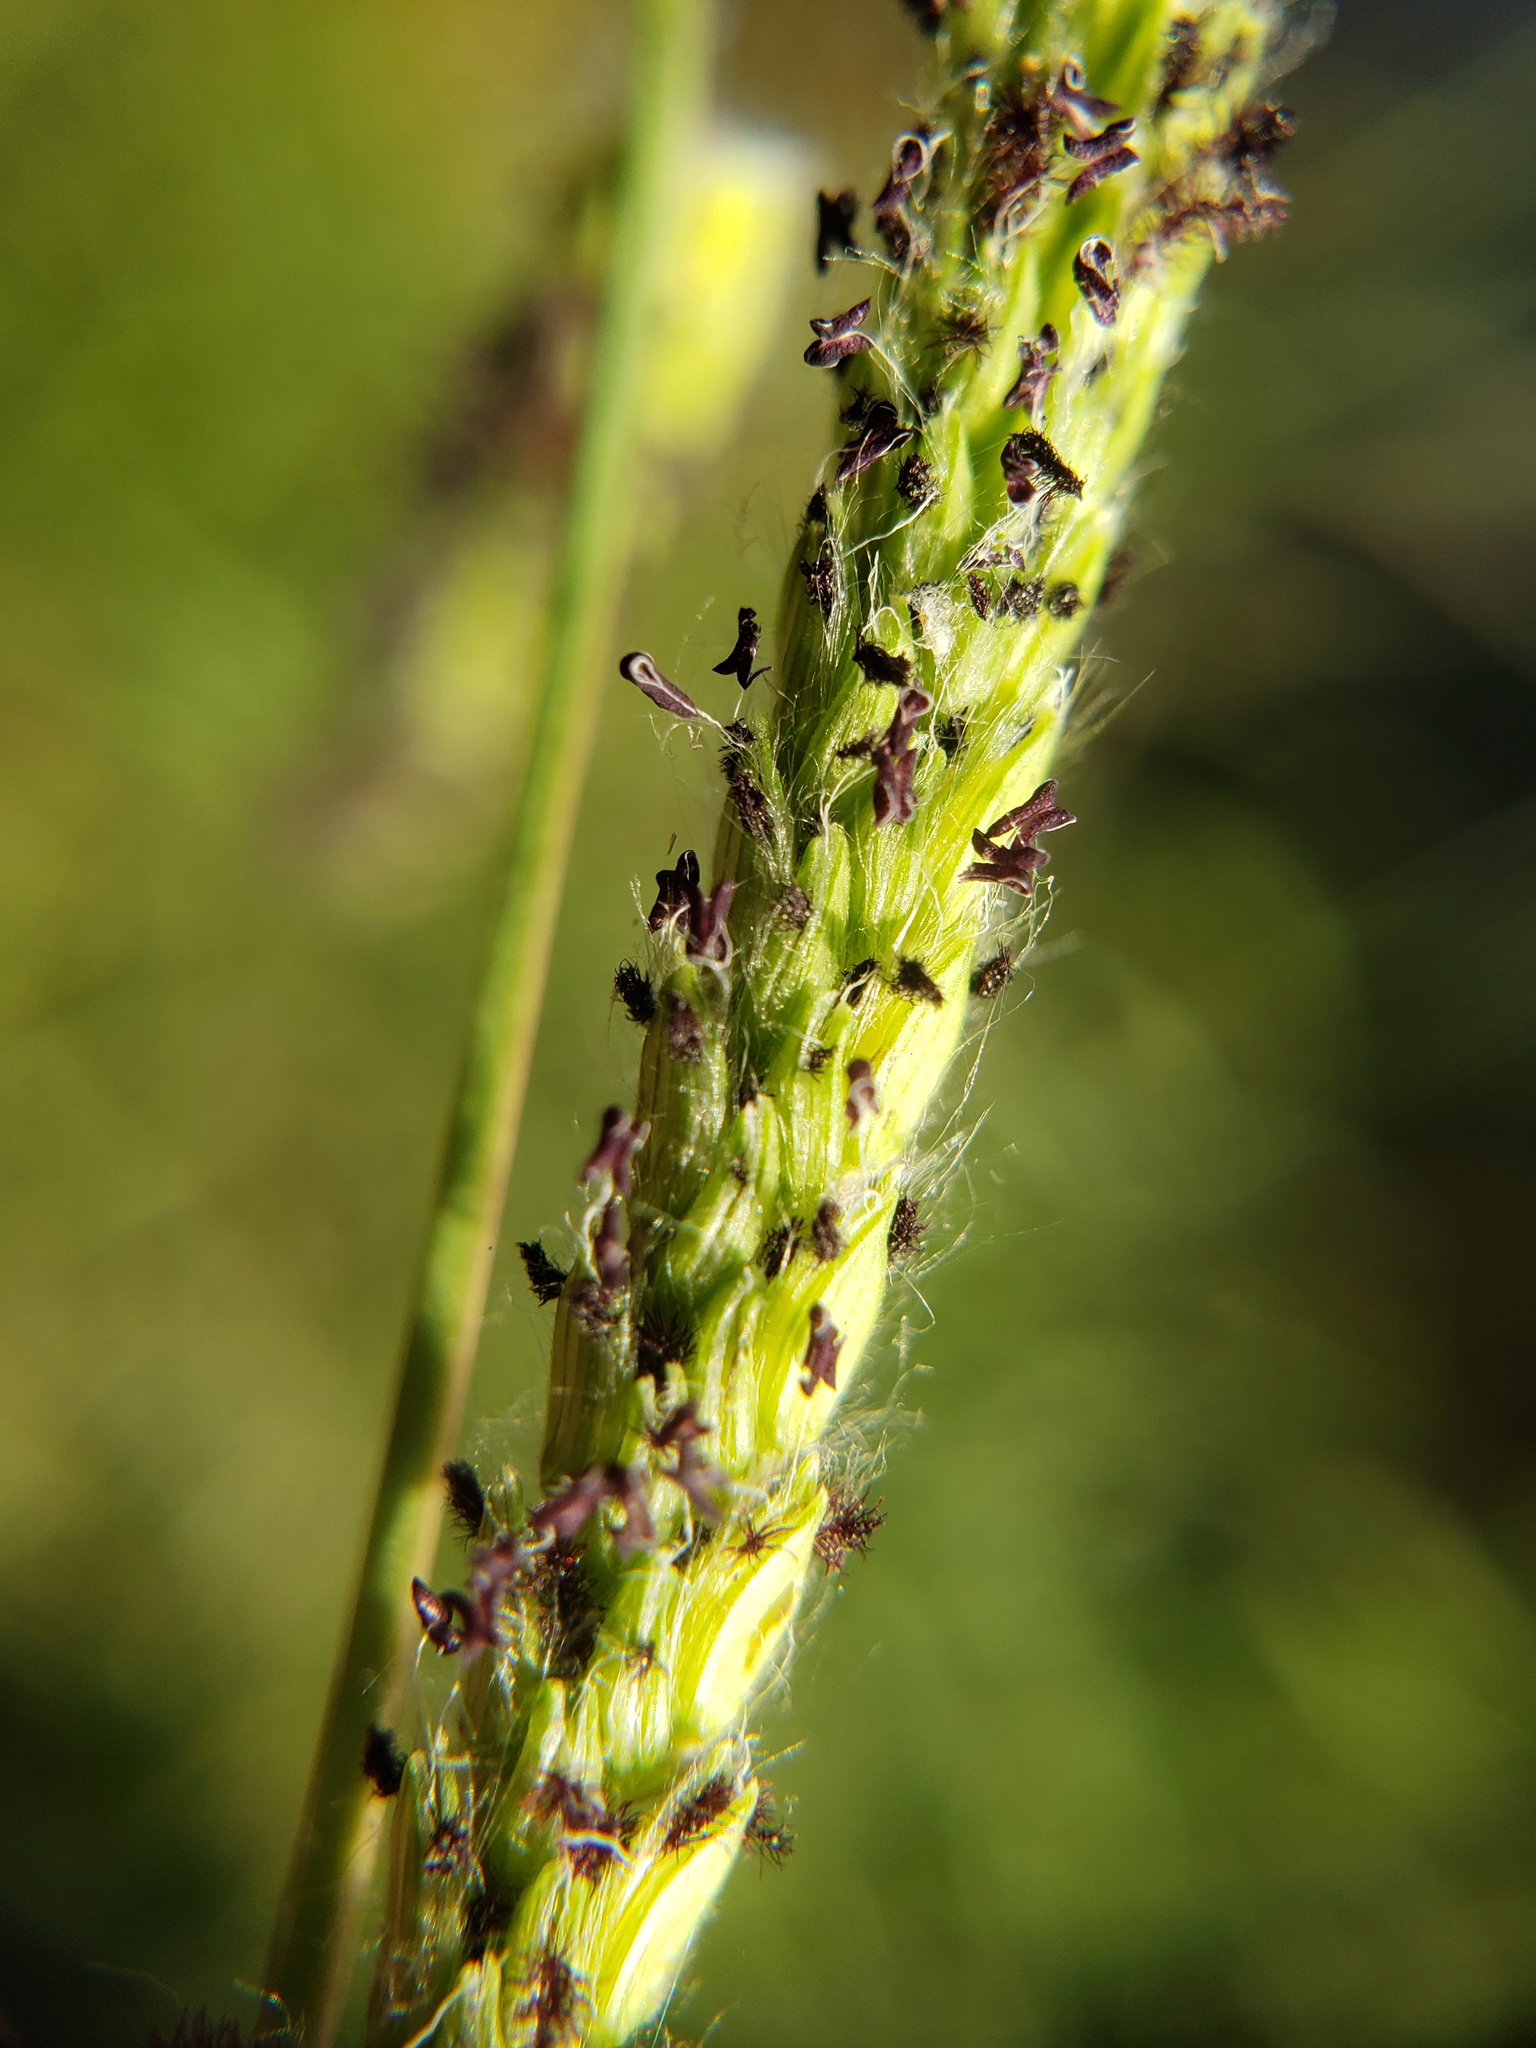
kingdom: Plantae
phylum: Tracheophyta
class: Liliopsida
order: Poales
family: Poaceae
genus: Paspalum
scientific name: Paspalum dilatatum
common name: Dallisgrass
